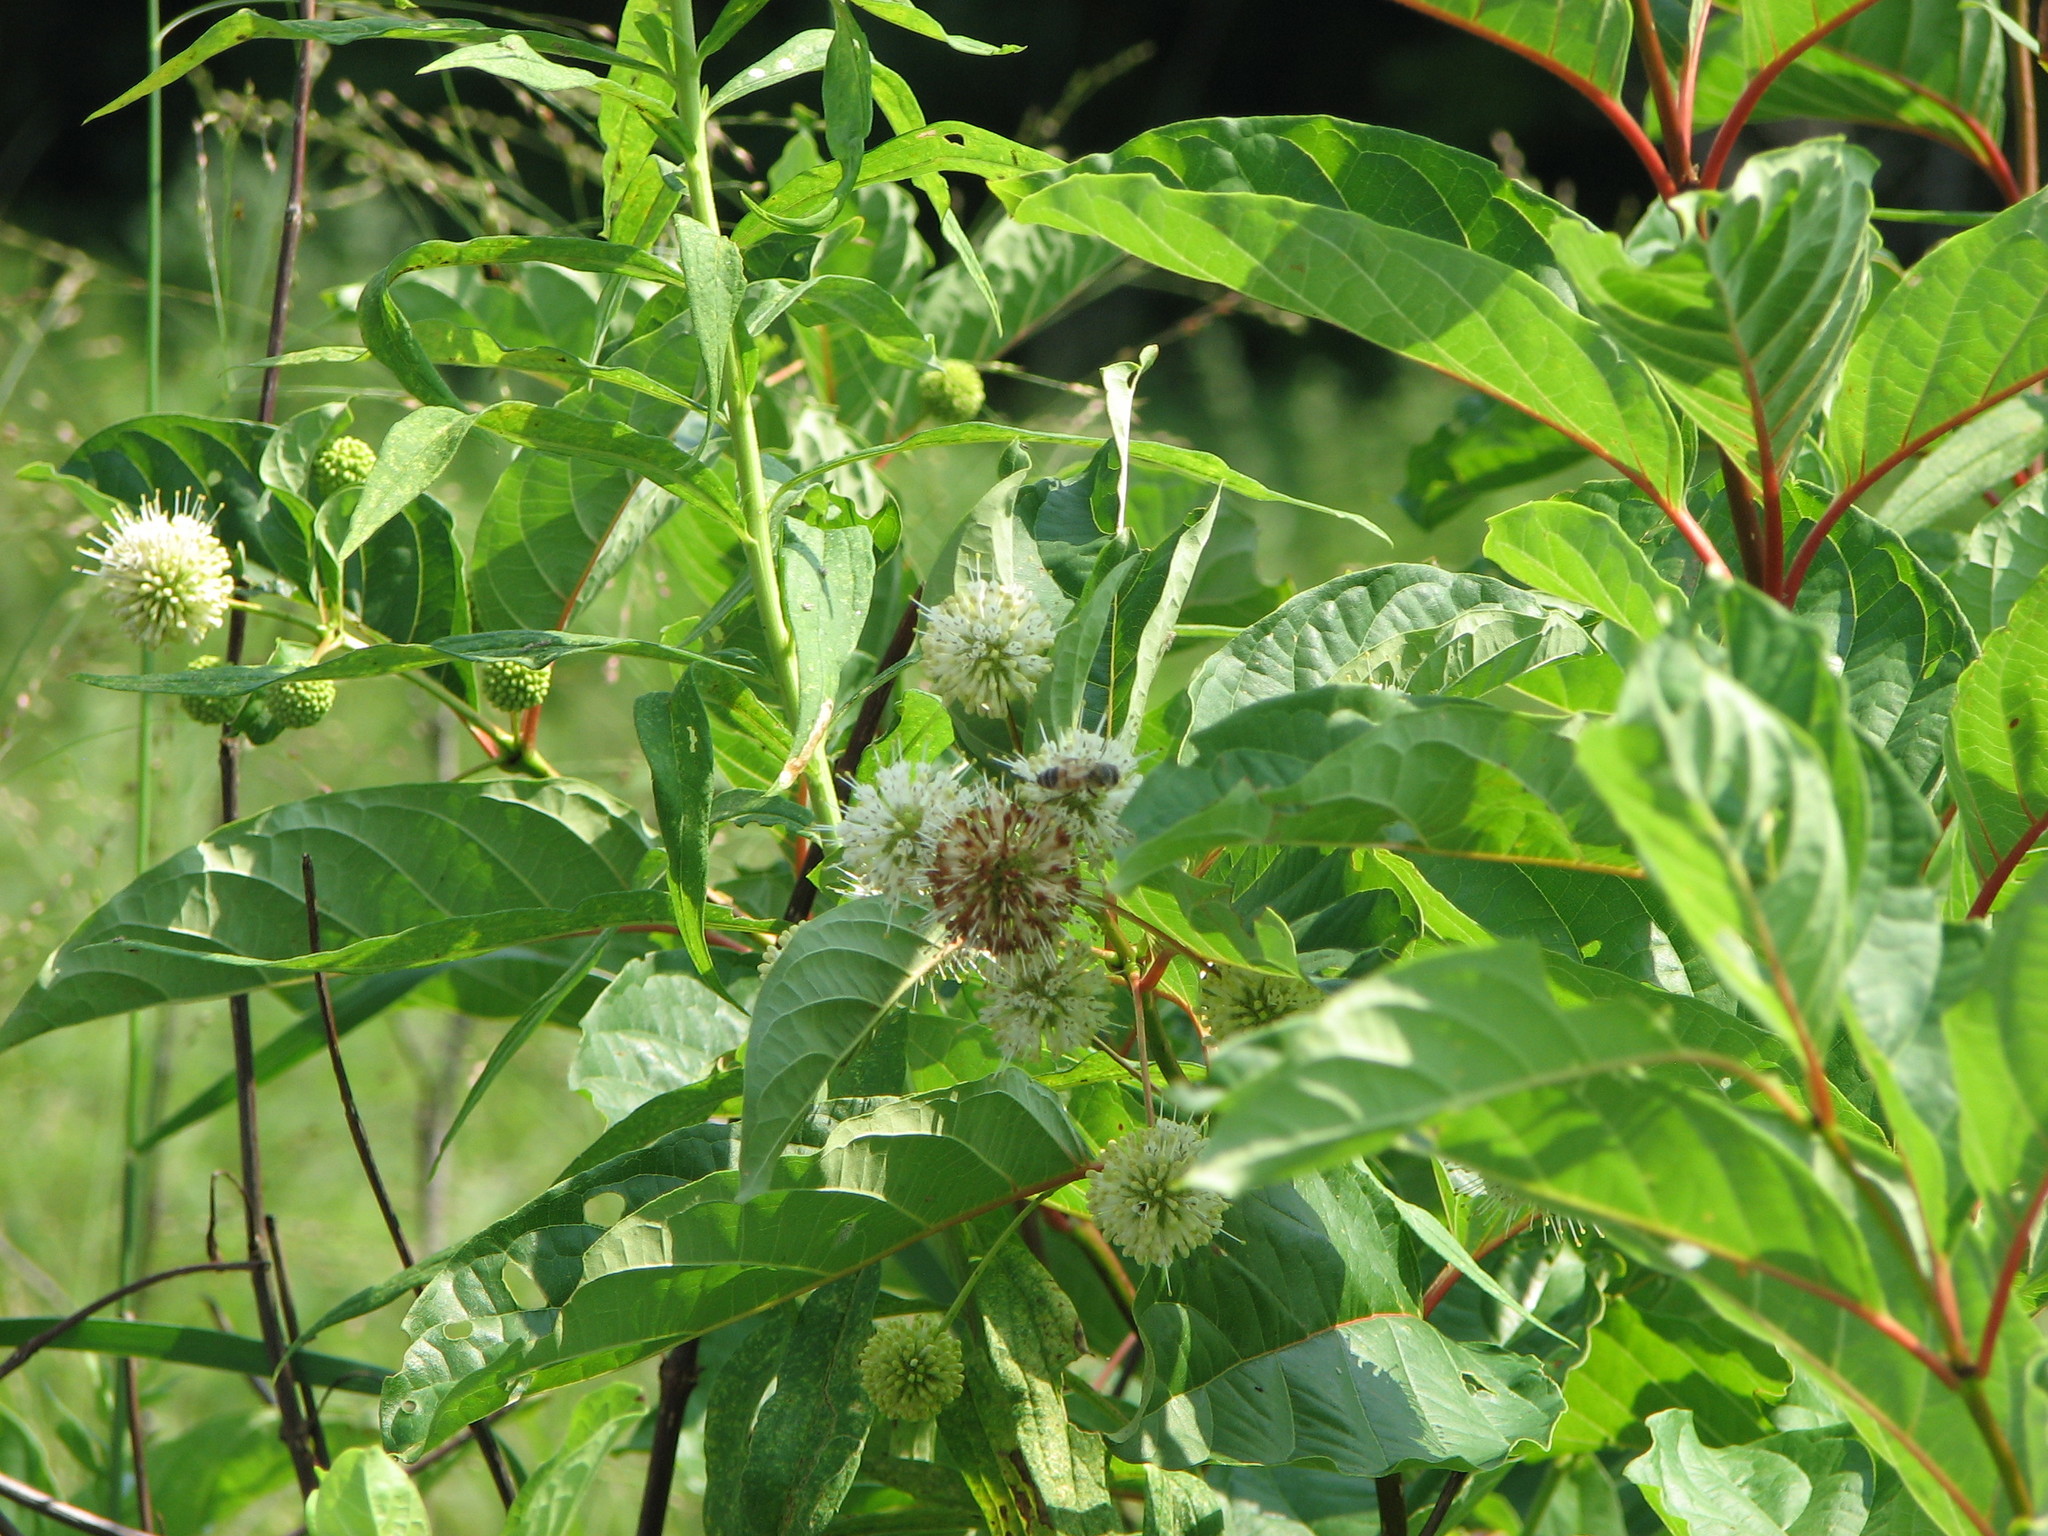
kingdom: Plantae
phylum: Tracheophyta
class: Magnoliopsida
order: Gentianales
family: Rubiaceae
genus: Cephalanthus
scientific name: Cephalanthus occidentalis
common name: Button-willow
